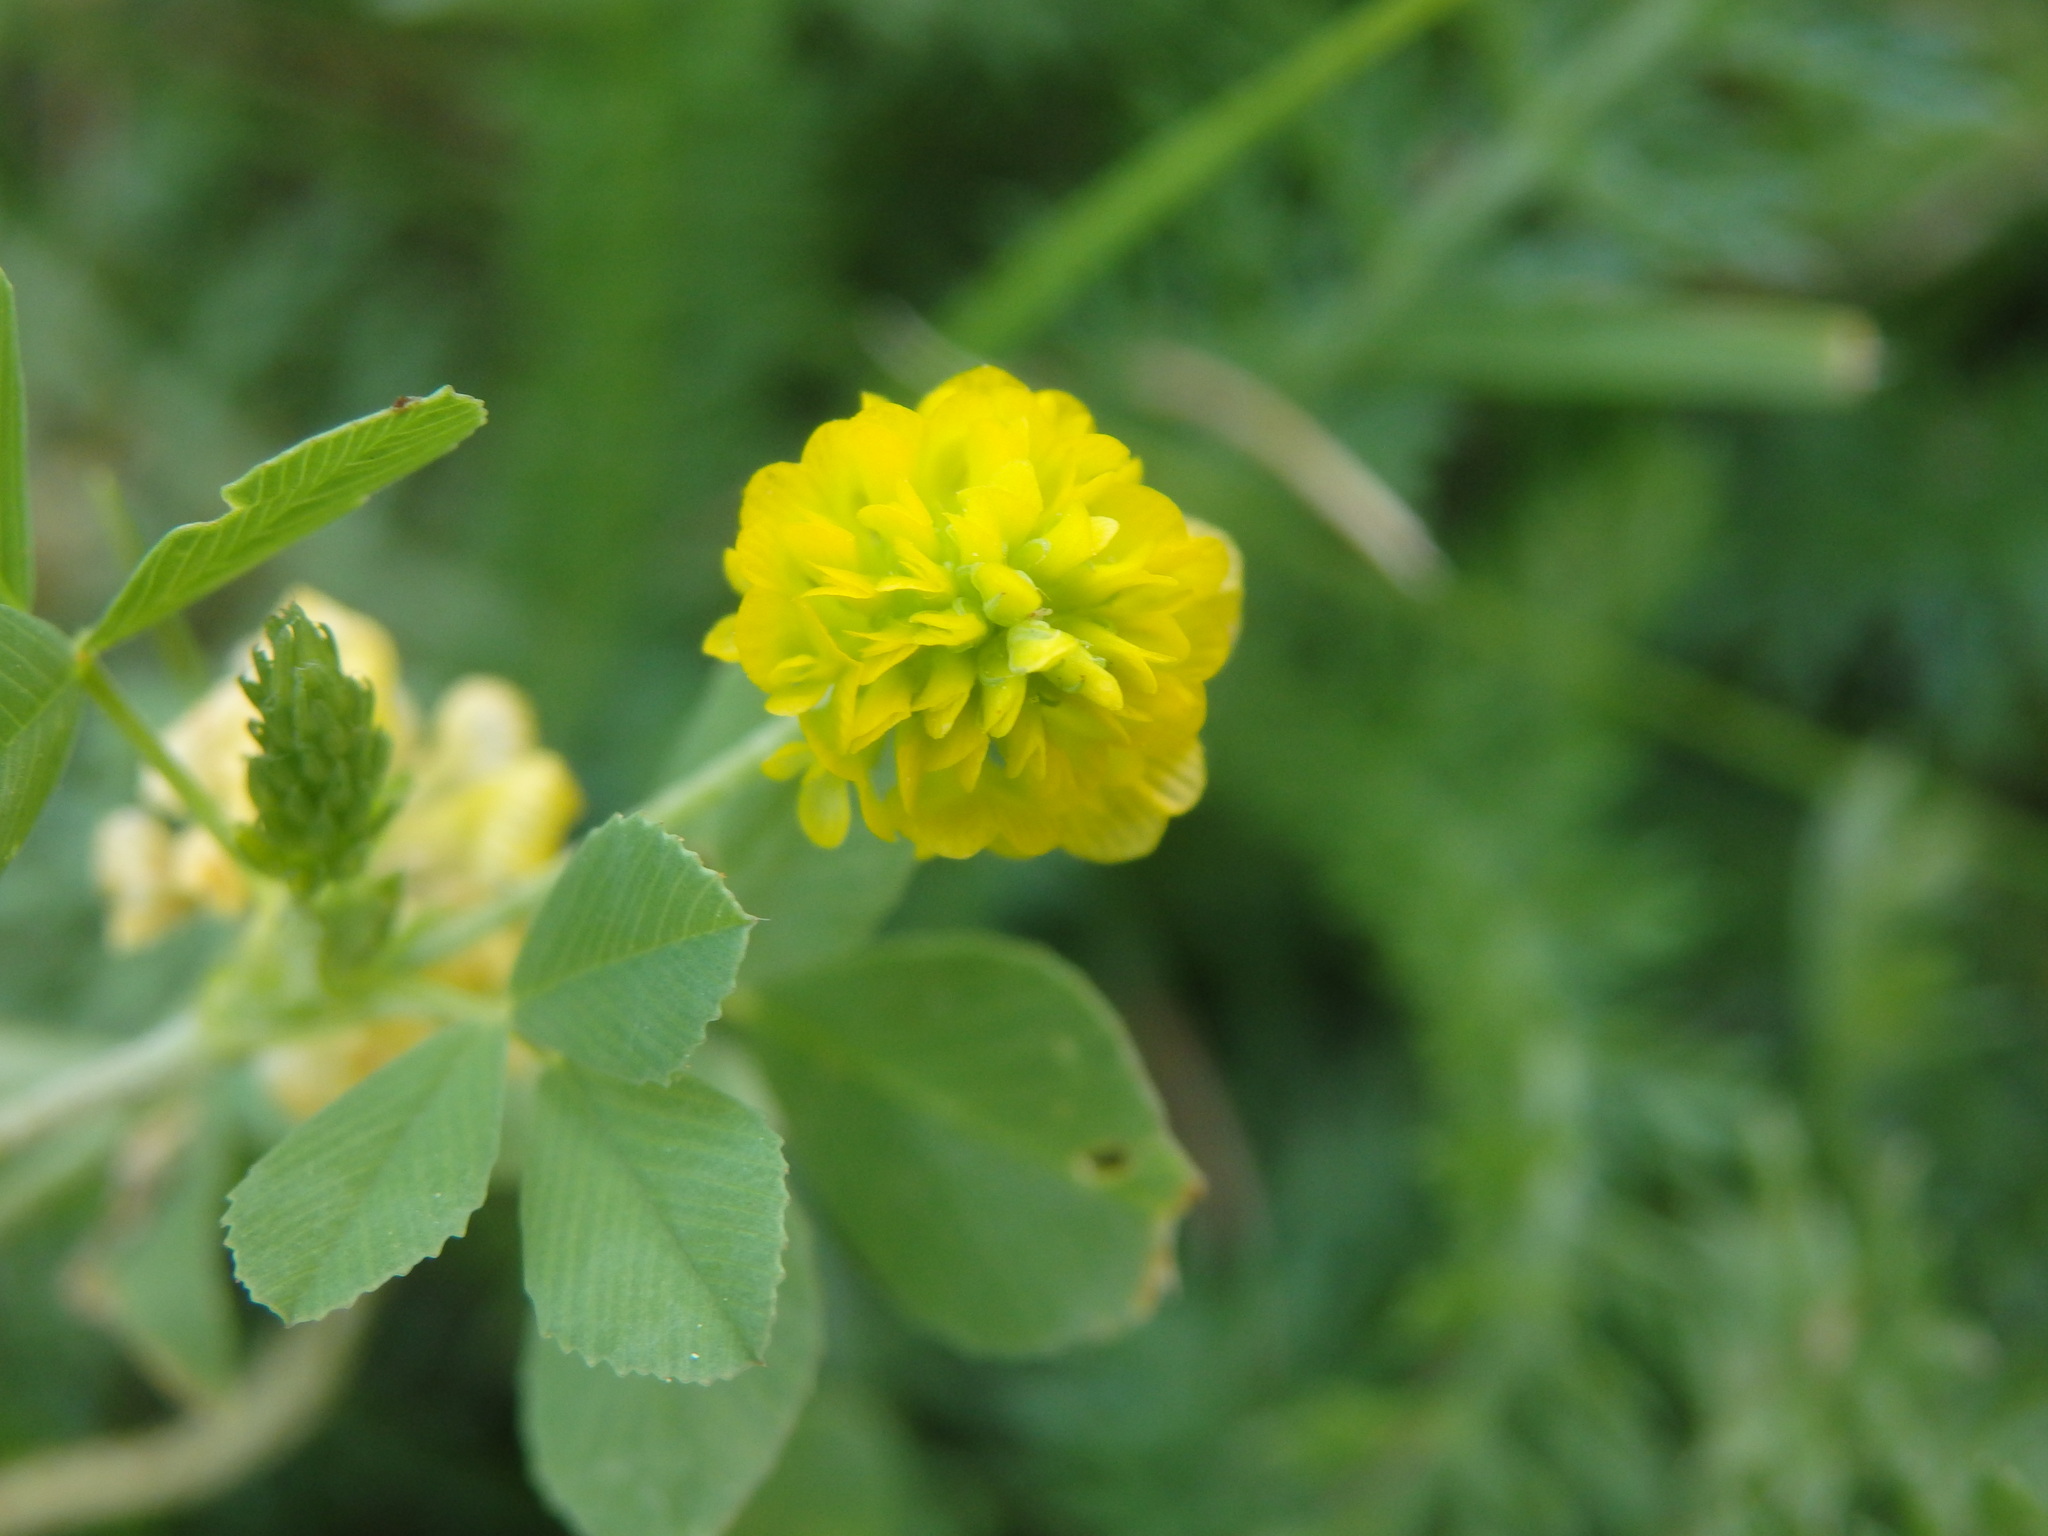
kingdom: Plantae
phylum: Tracheophyta
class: Magnoliopsida
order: Fabales
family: Fabaceae
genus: Trifolium
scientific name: Trifolium campestre
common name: Field clover
